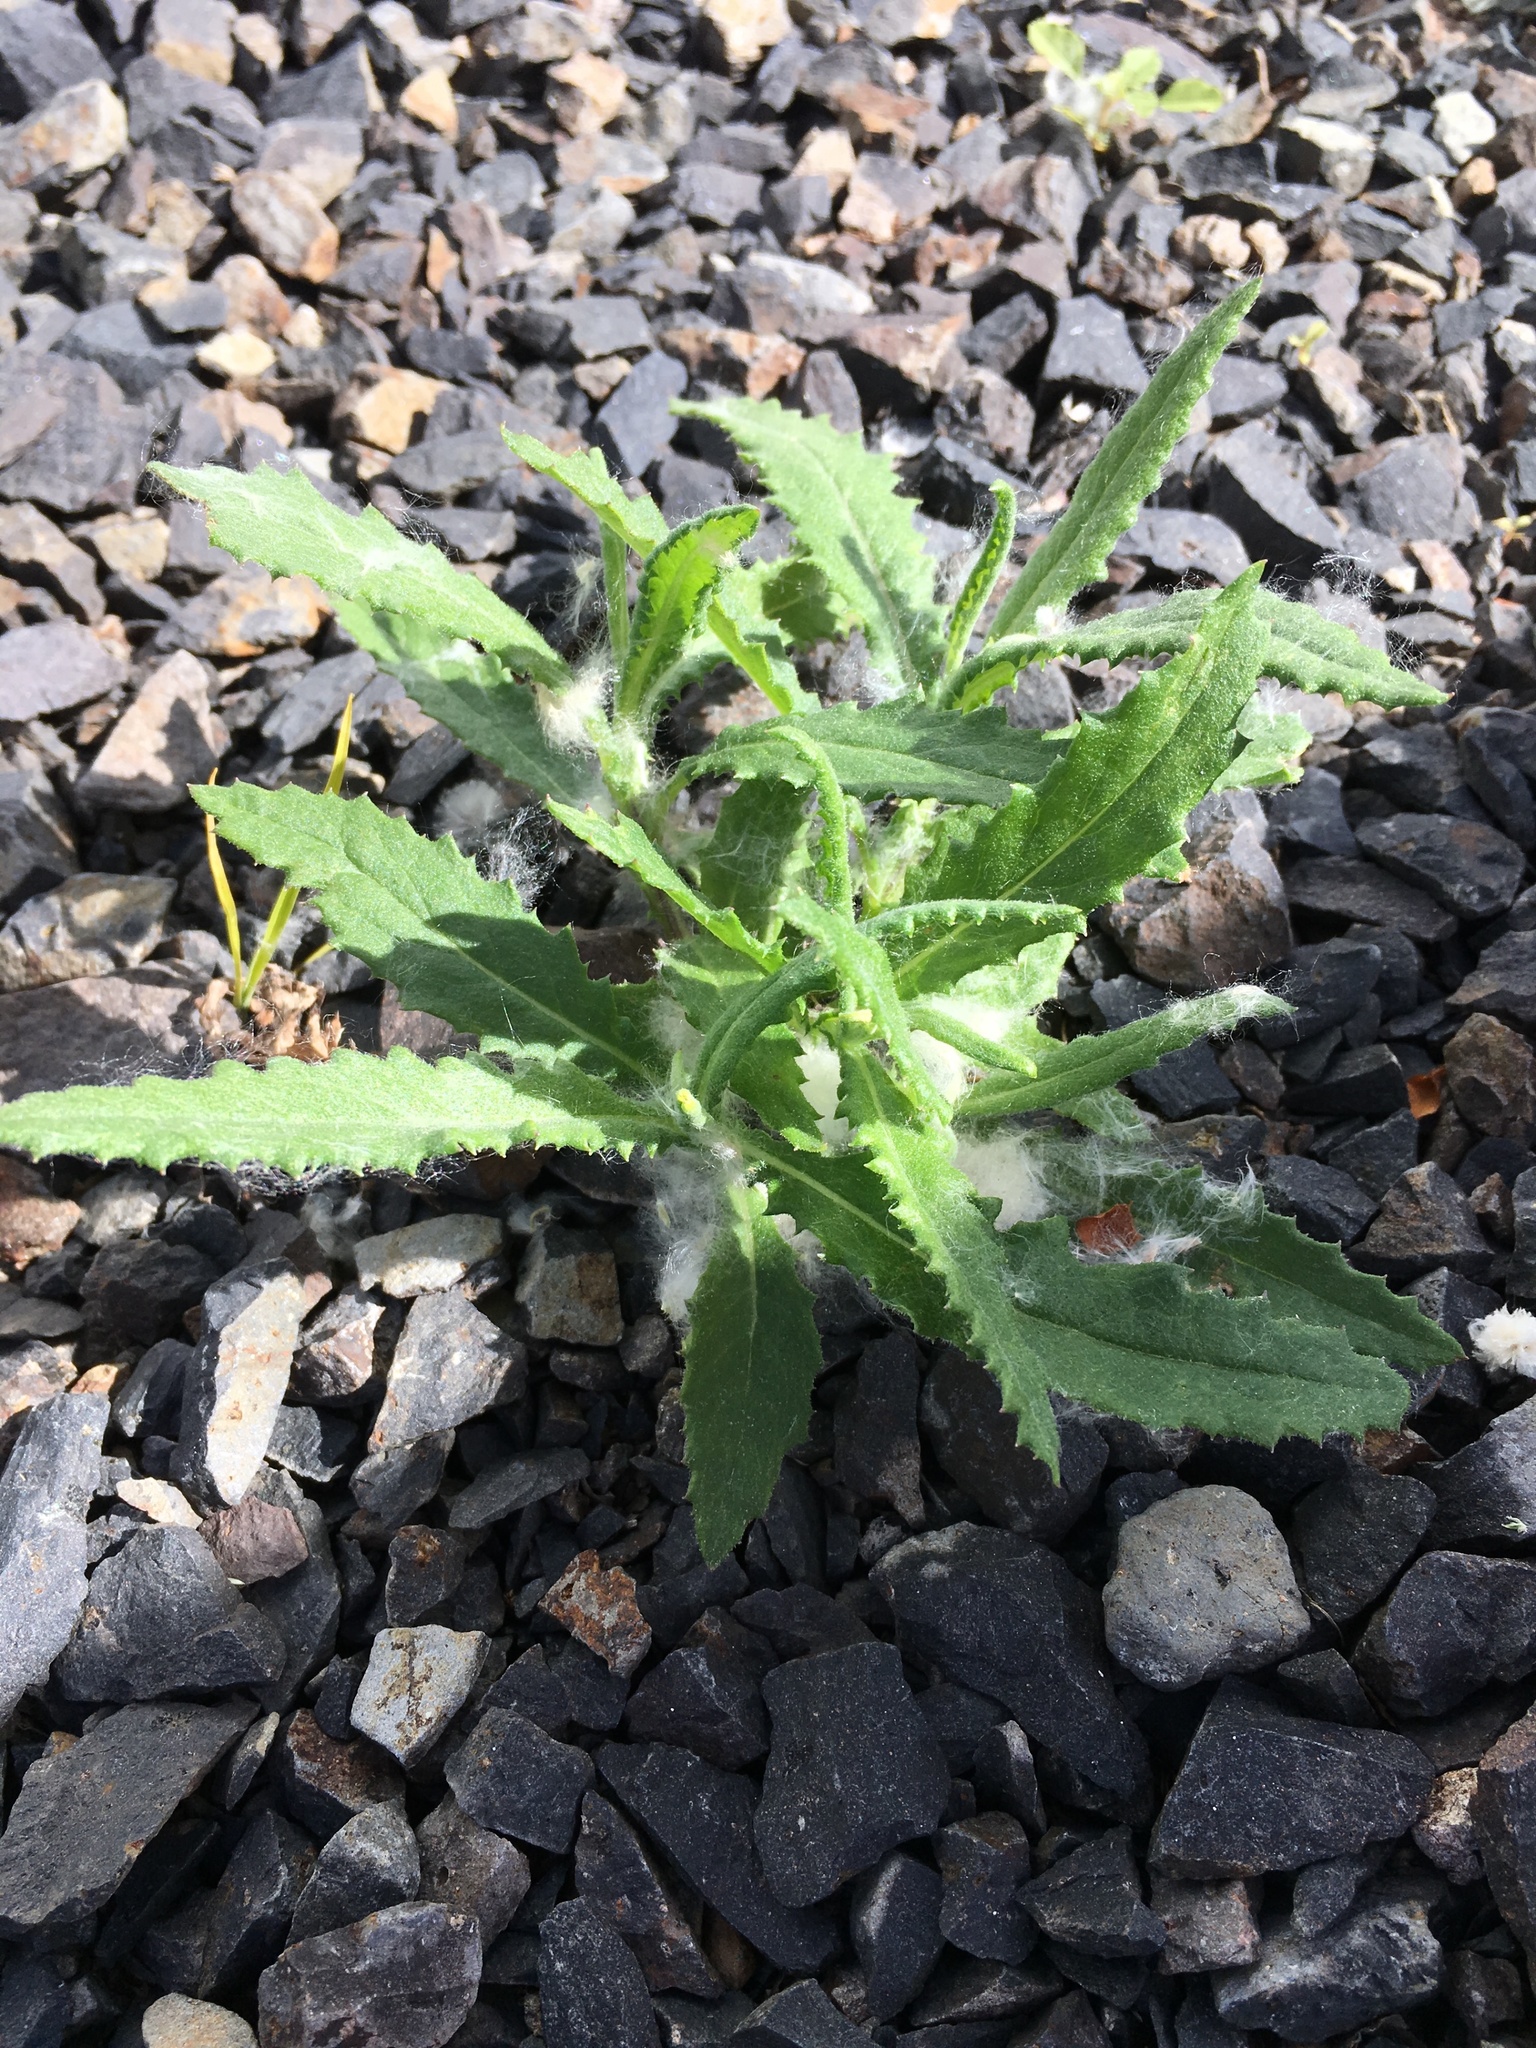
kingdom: Plantae
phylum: Tracheophyta
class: Magnoliopsida
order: Asterales
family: Asteraceae
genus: Senecio
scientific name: Senecio minimus
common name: Toothed fireweed
